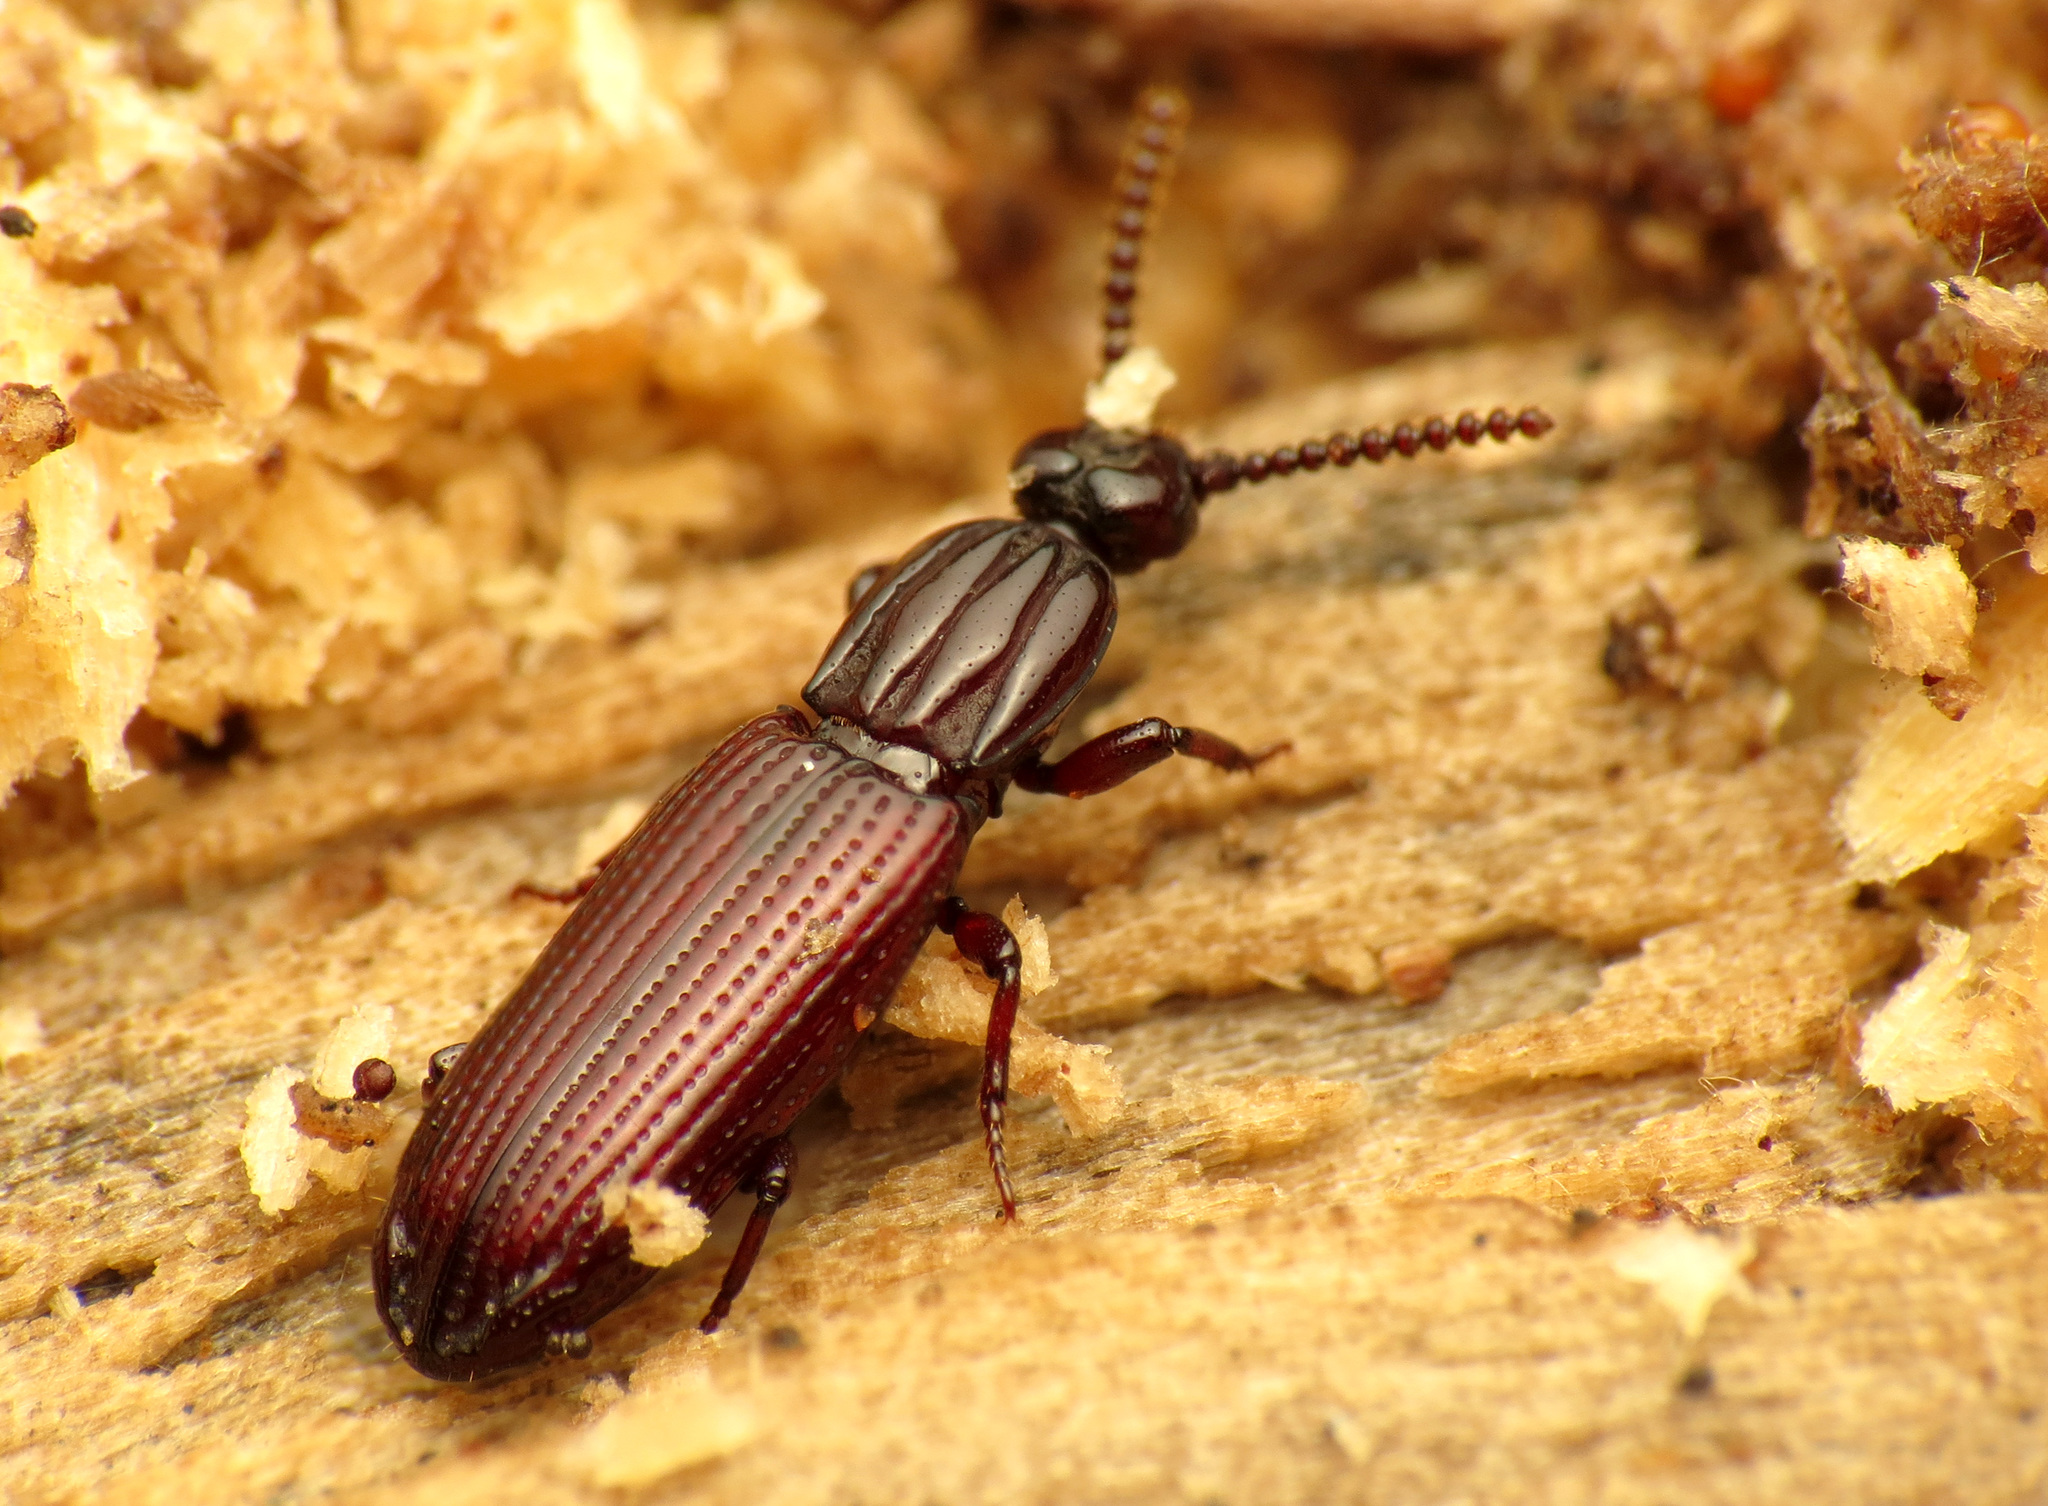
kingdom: Animalia
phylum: Arthropoda
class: Insecta
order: Coleoptera
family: Carabidae
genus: Omoglymmius
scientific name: Omoglymmius americanus
